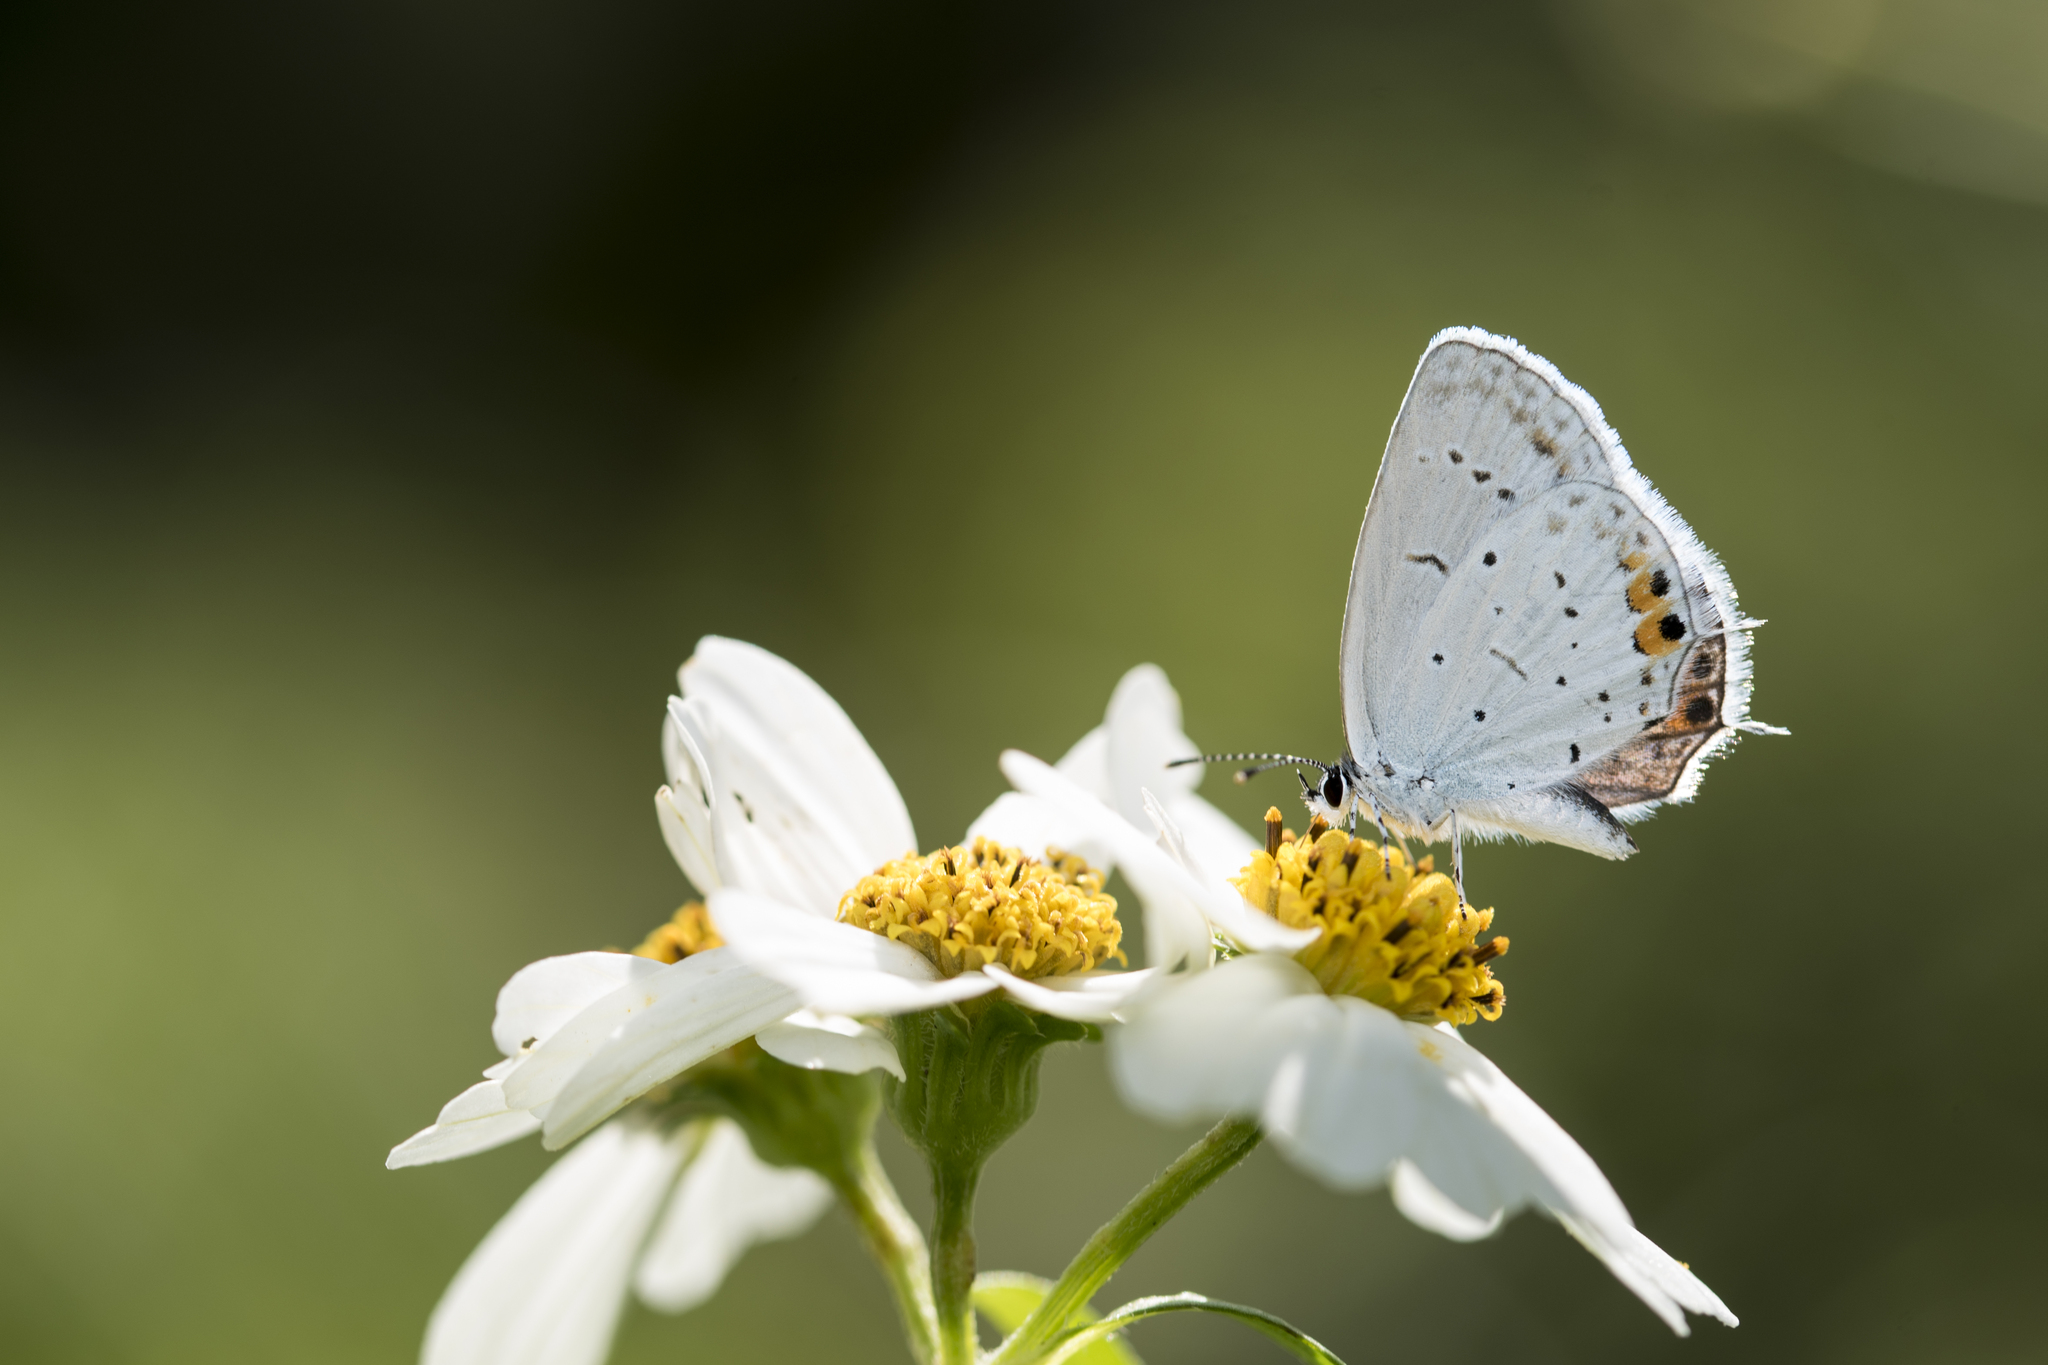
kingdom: Animalia
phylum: Arthropoda
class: Insecta
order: Lepidoptera
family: Lycaenidae
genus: Elkalyce
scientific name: Elkalyce argiades
